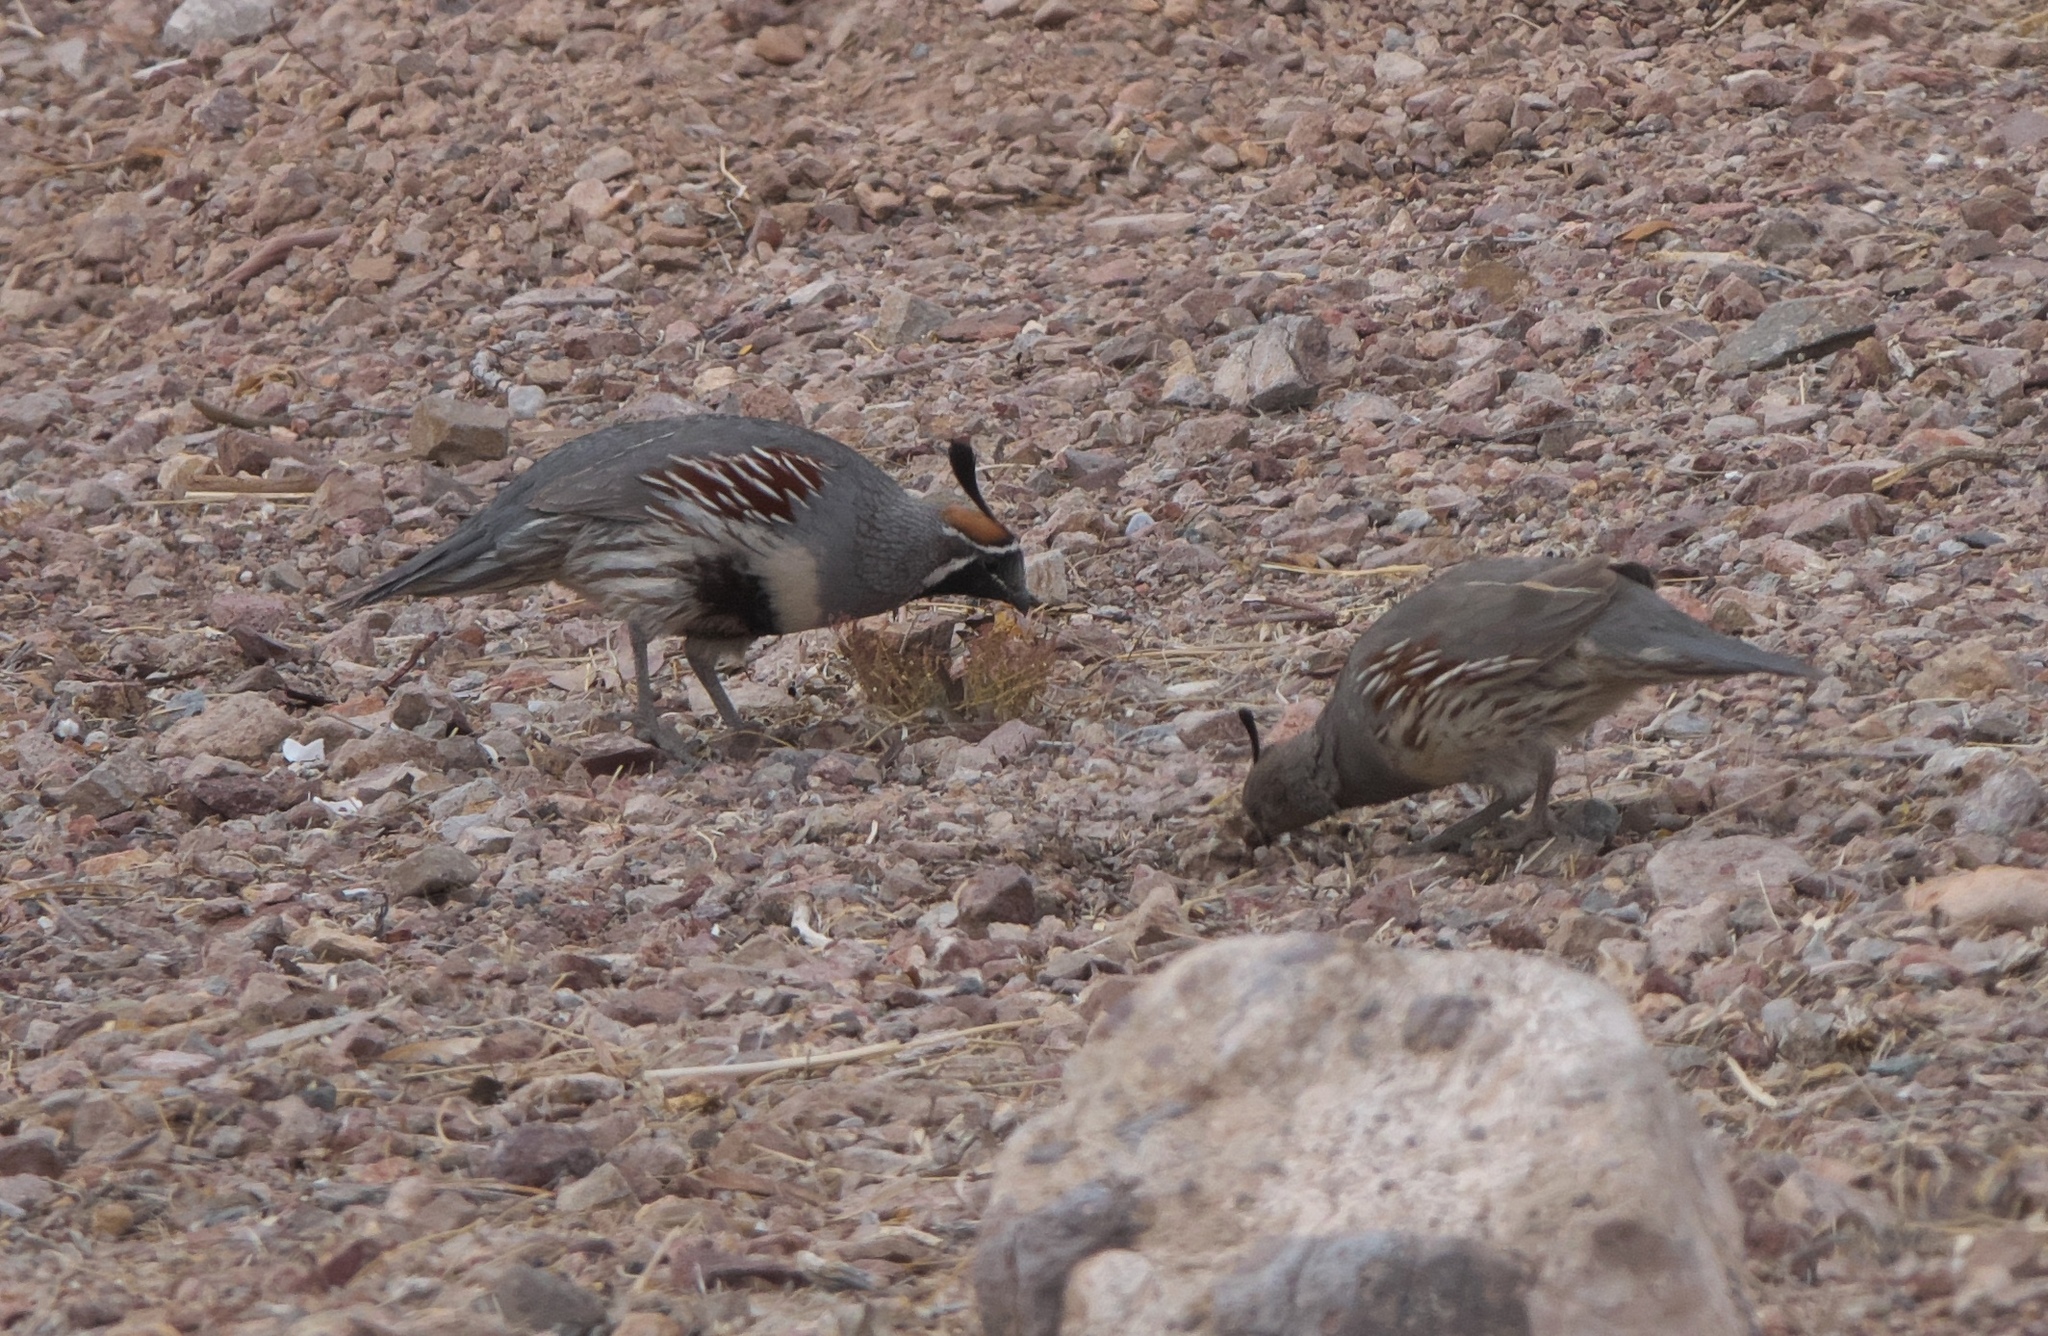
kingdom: Animalia
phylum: Chordata
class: Aves
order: Galliformes
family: Odontophoridae
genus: Callipepla
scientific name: Callipepla gambelii
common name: Gambel's quail
